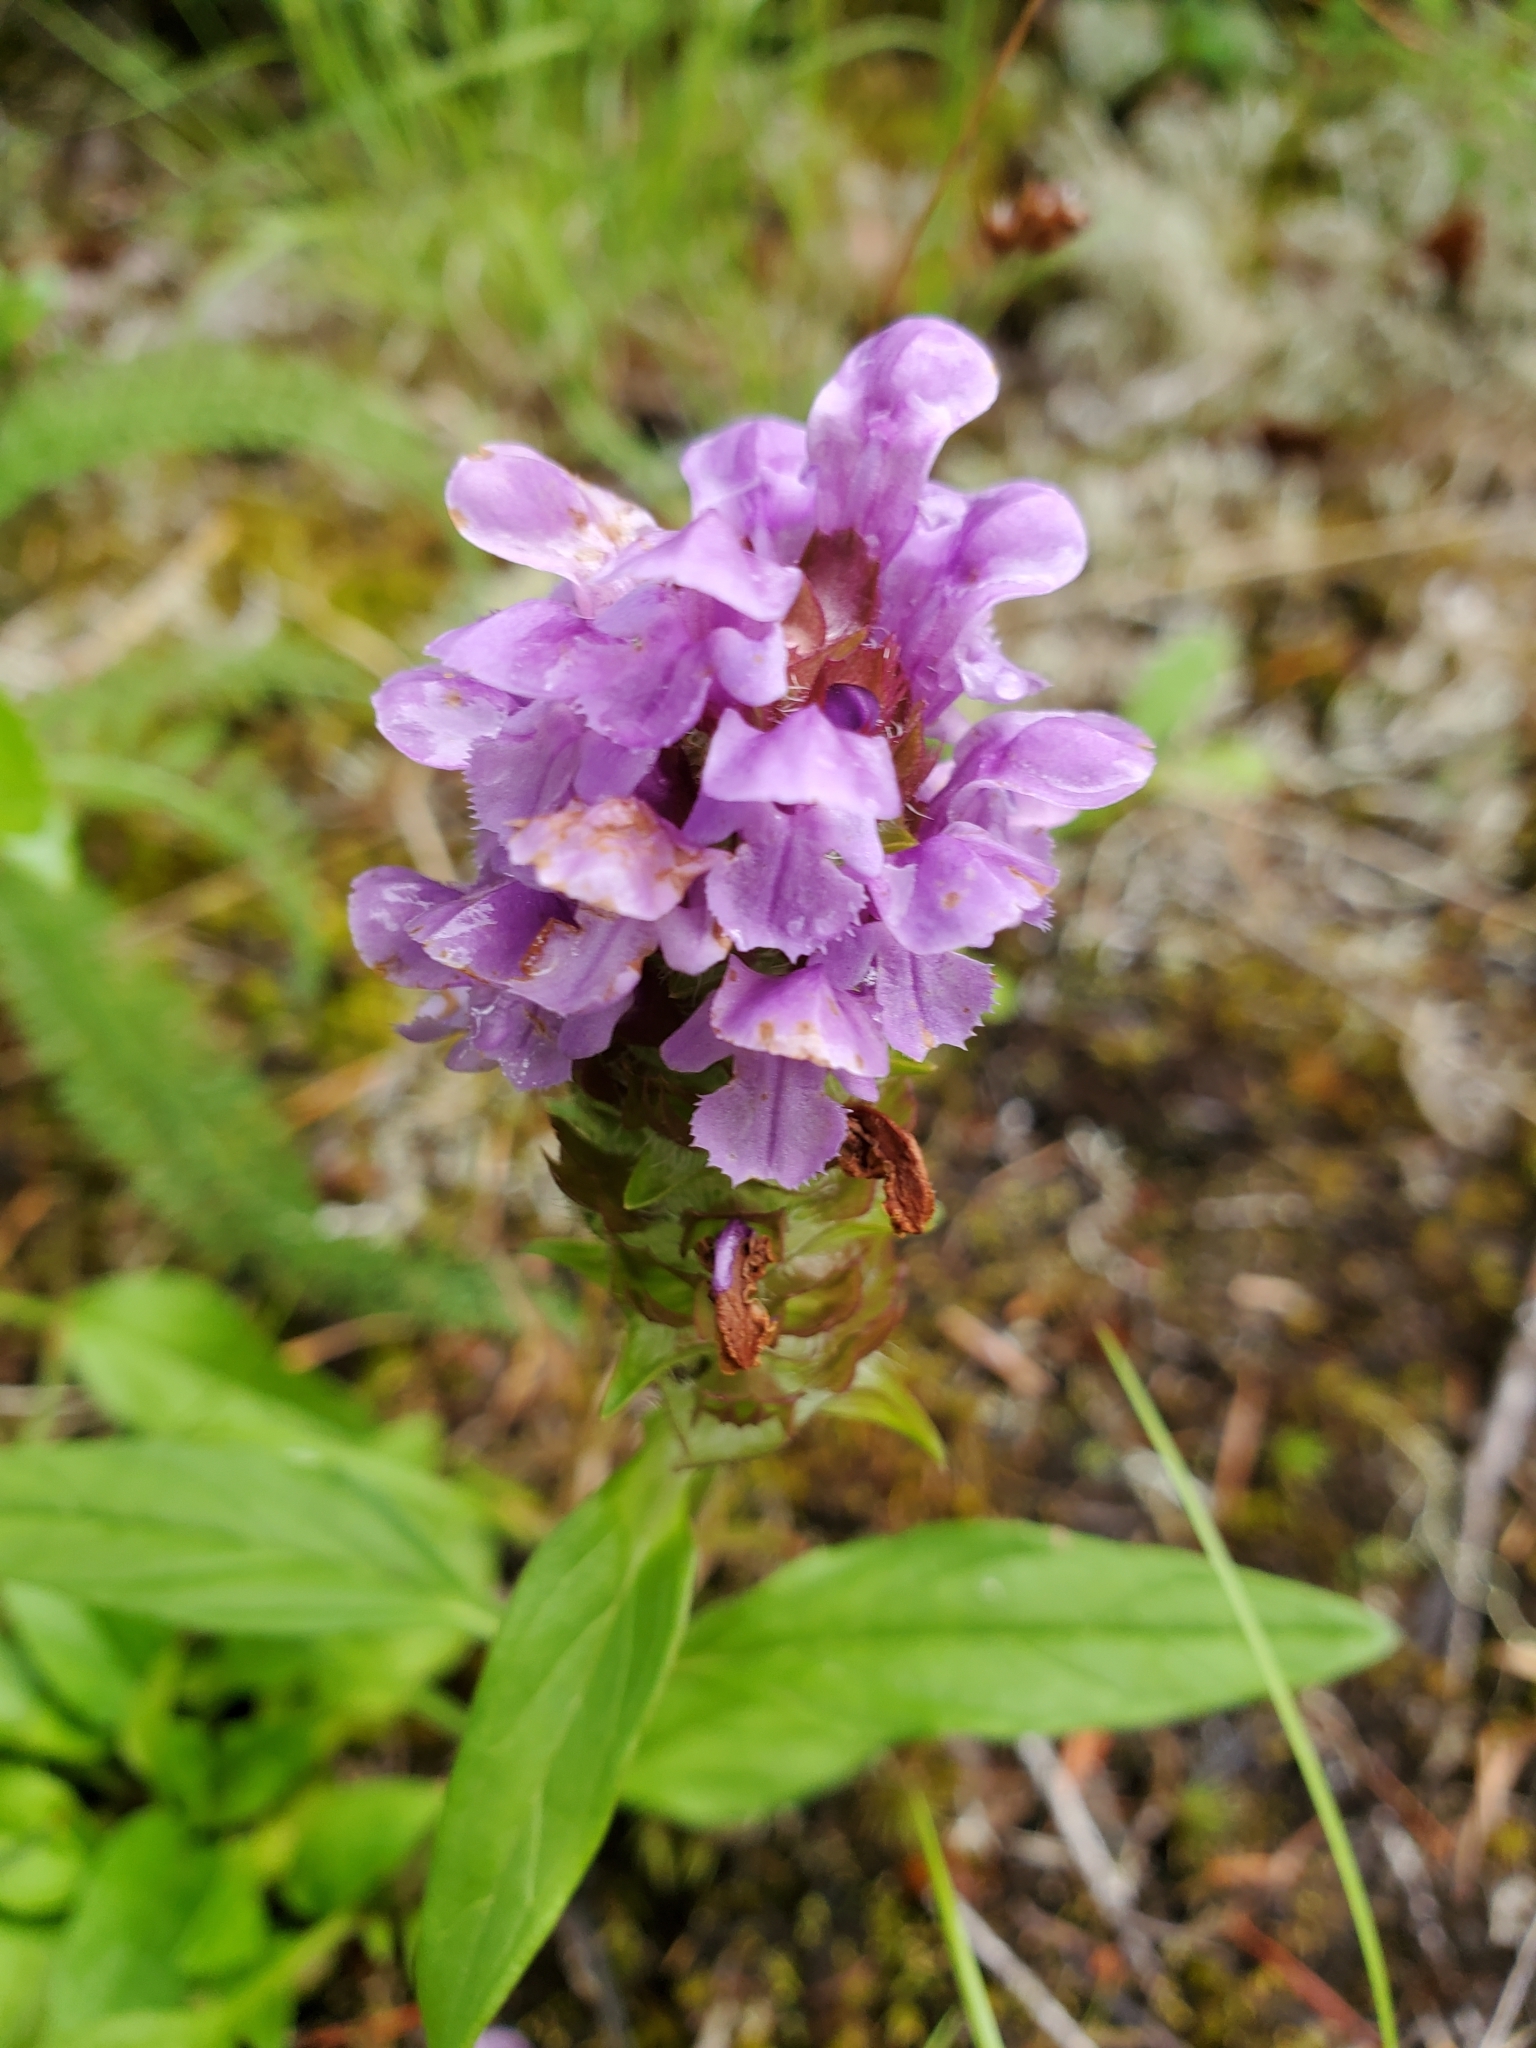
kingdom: Plantae
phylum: Tracheophyta
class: Magnoliopsida
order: Lamiales
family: Lamiaceae
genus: Prunella
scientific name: Prunella vulgaris
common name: Heal-all
